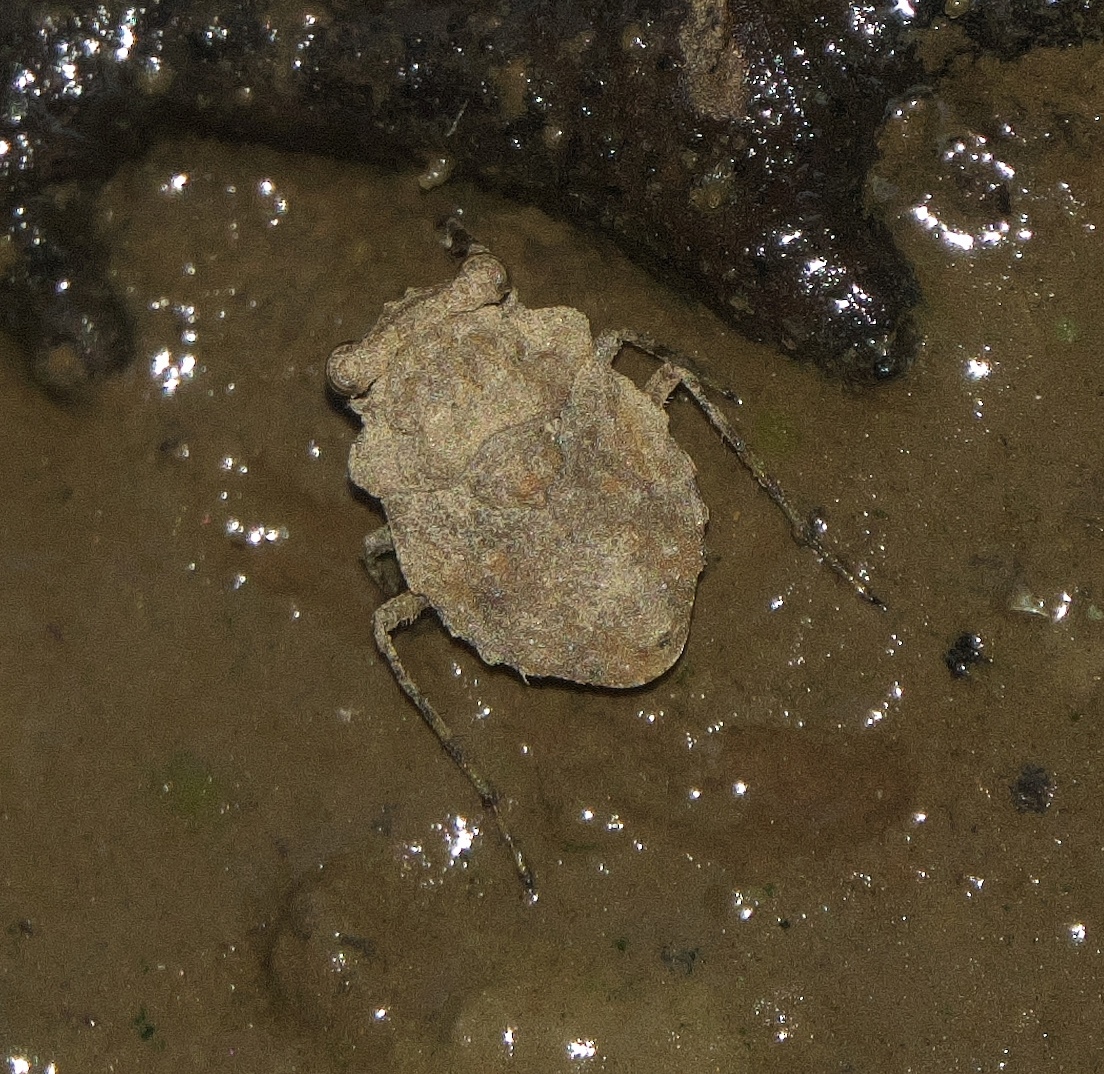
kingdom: Animalia
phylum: Arthropoda
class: Insecta
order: Hemiptera
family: Gelastocoridae
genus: Gelastocoris
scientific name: Gelastocoris oculatus
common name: Toad bug
